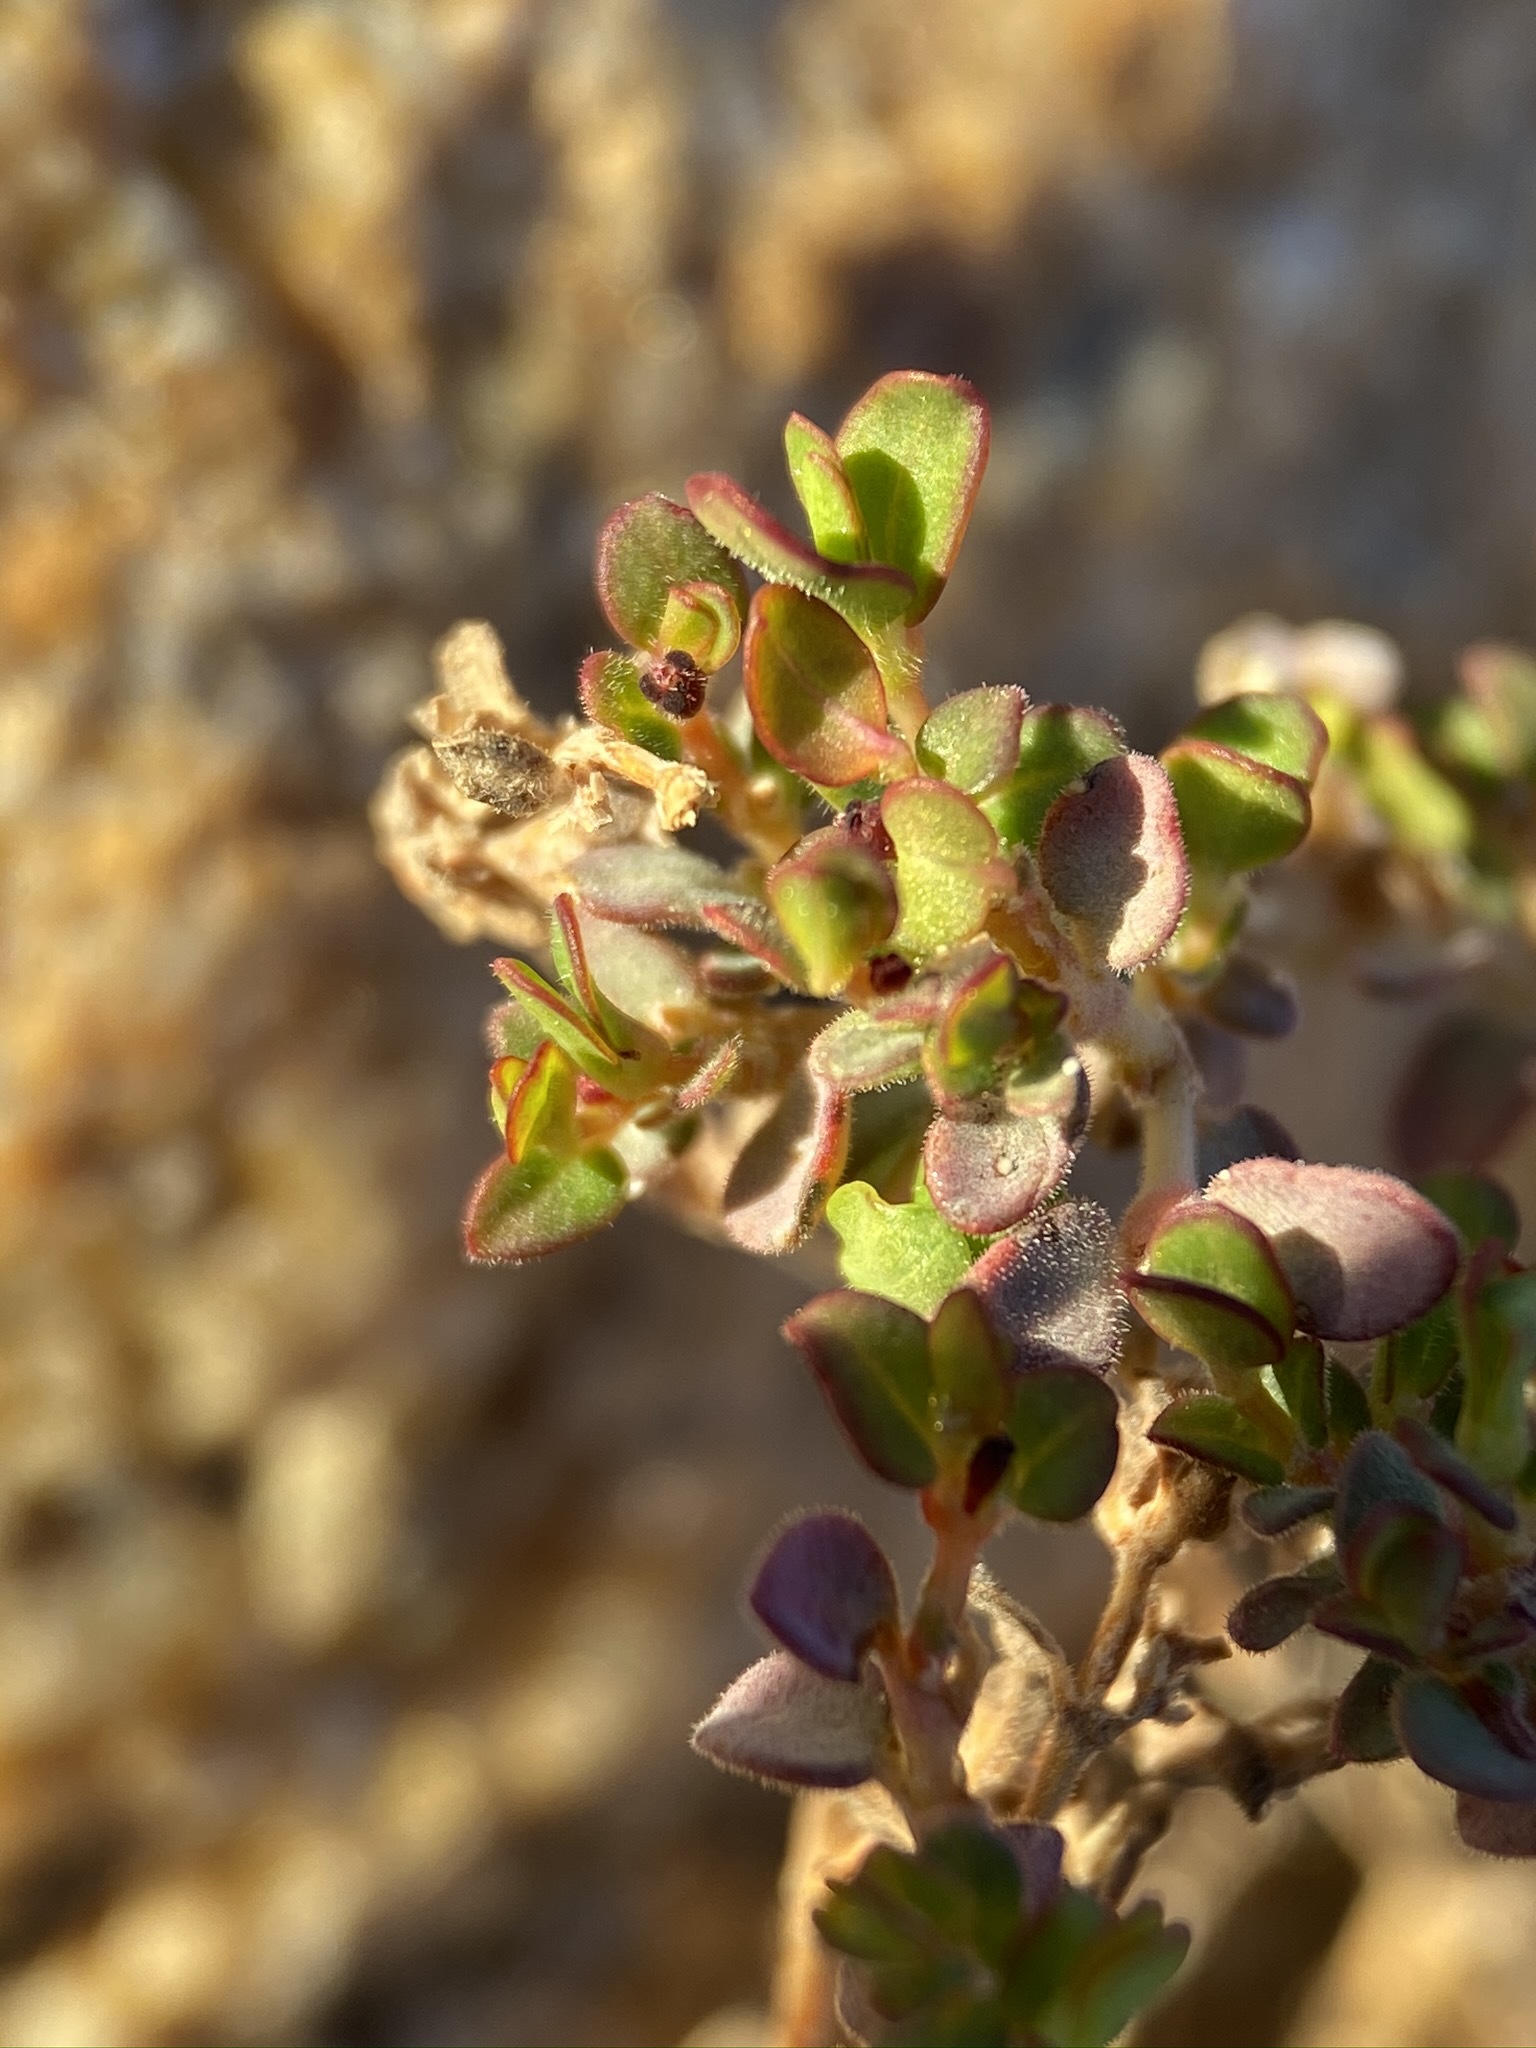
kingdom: Plantae
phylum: Tracheophyta
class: Magnoliopsida
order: Malpighiales
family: Euphorbiaceae
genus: Euphorbia
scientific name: Euphorbia polycarpa
